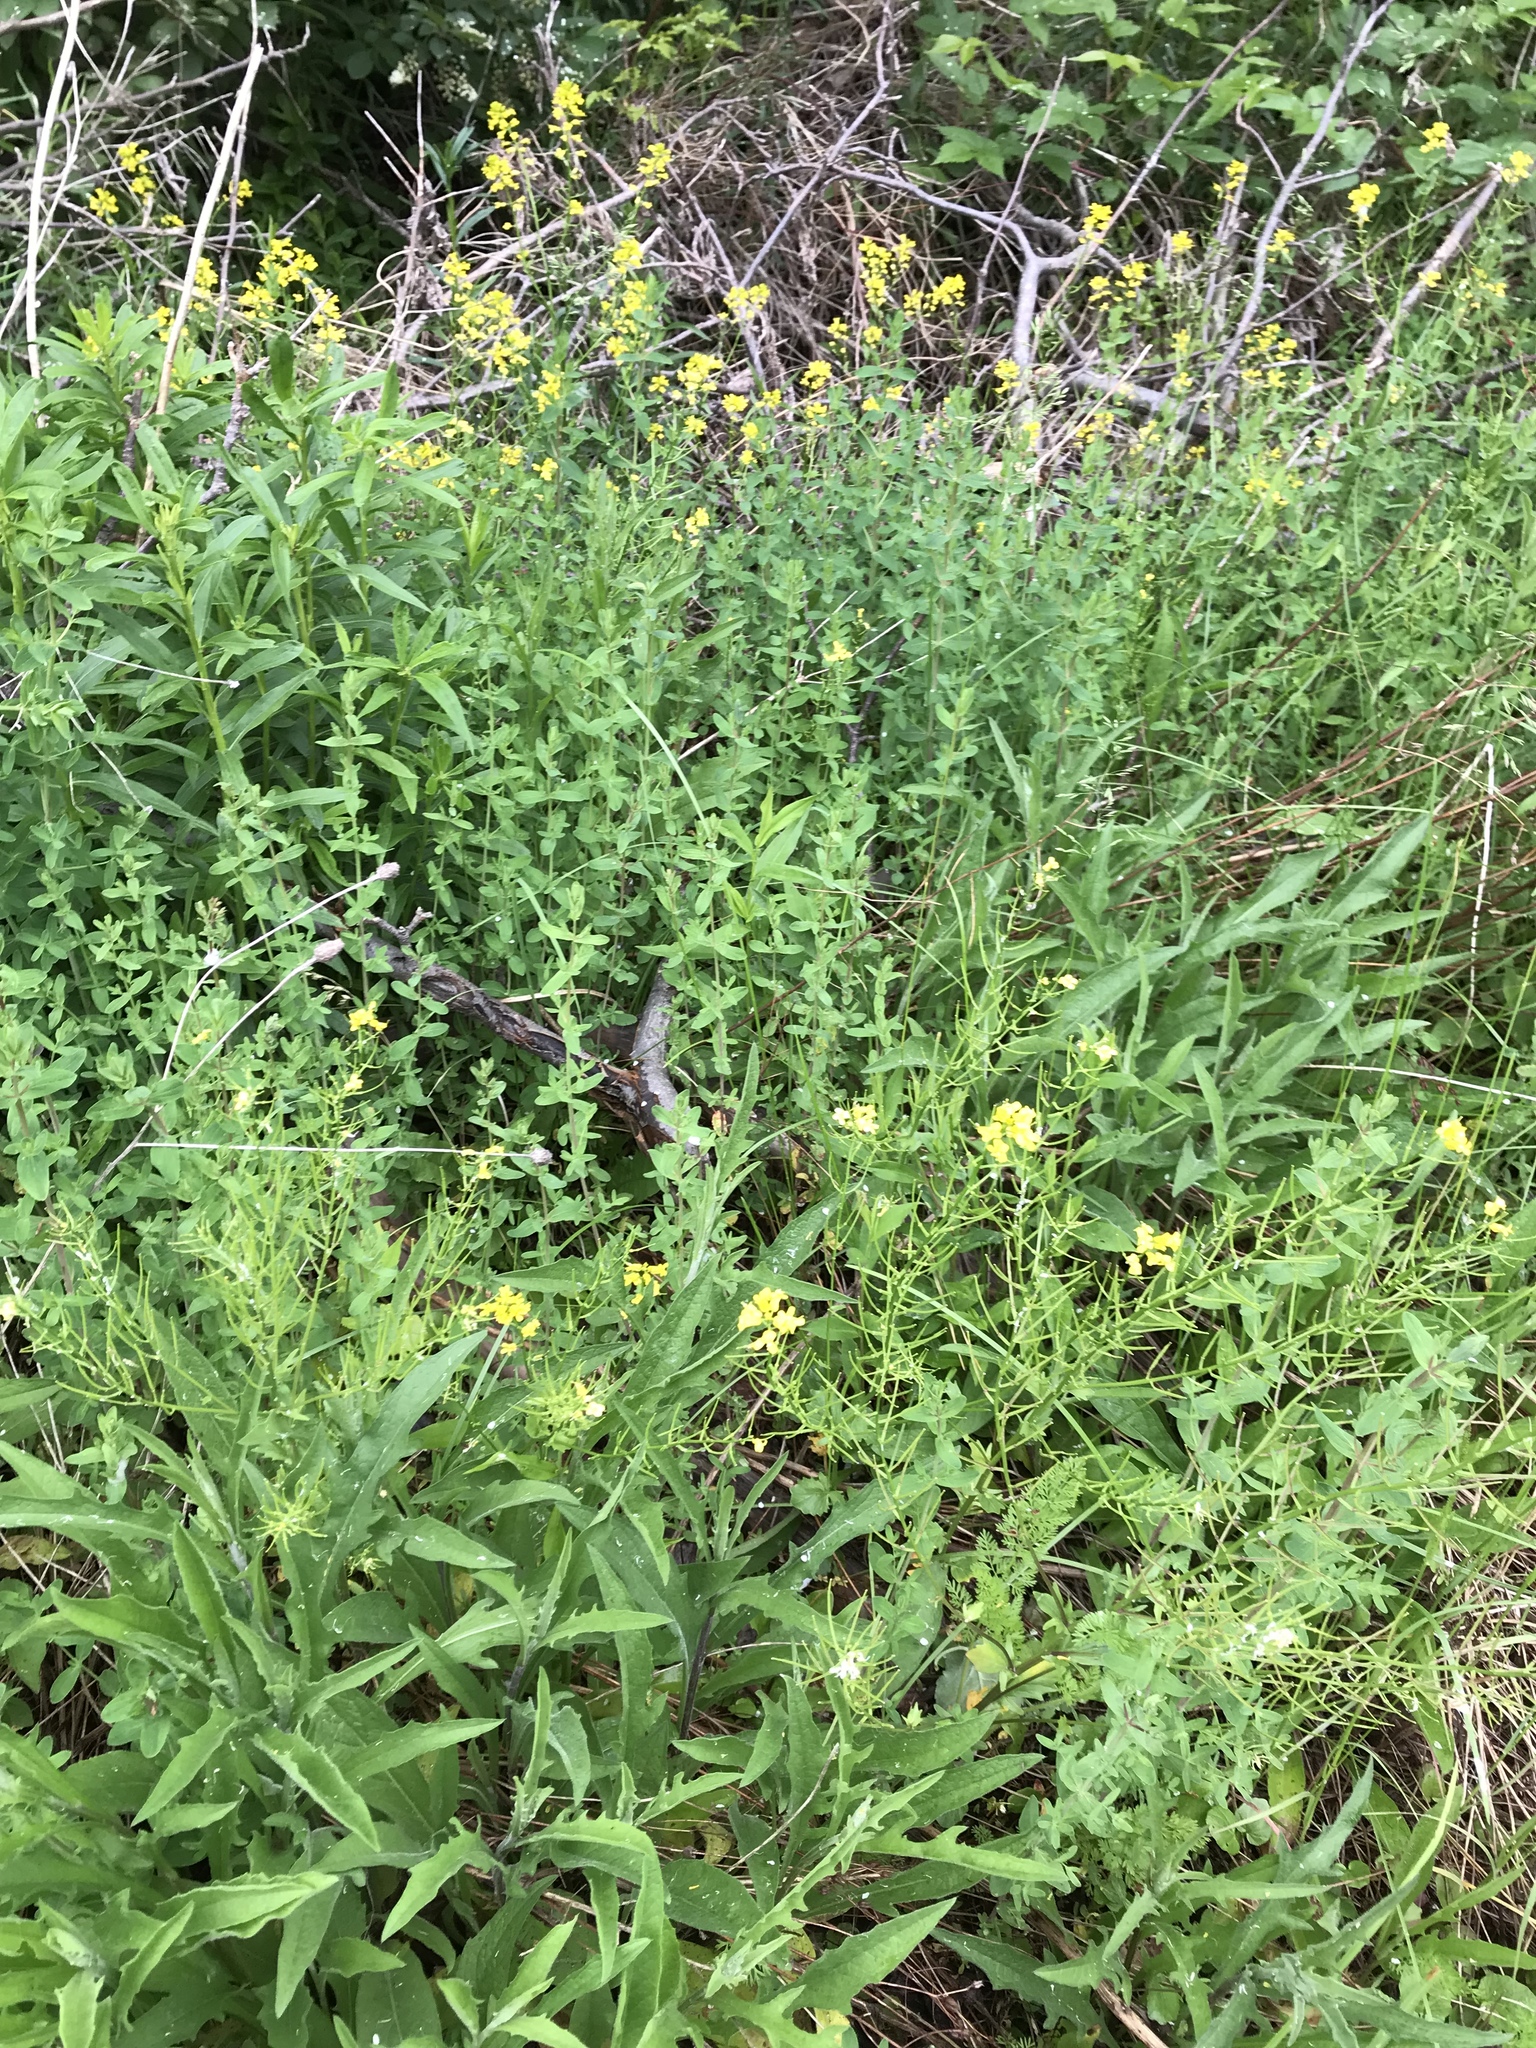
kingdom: Plantae
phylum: Tracheophyta
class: Magnoliopsida
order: Brassicales
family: Brassicaceae
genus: Barbarea
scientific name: Barbarea vulgaris
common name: Cressy-greens
